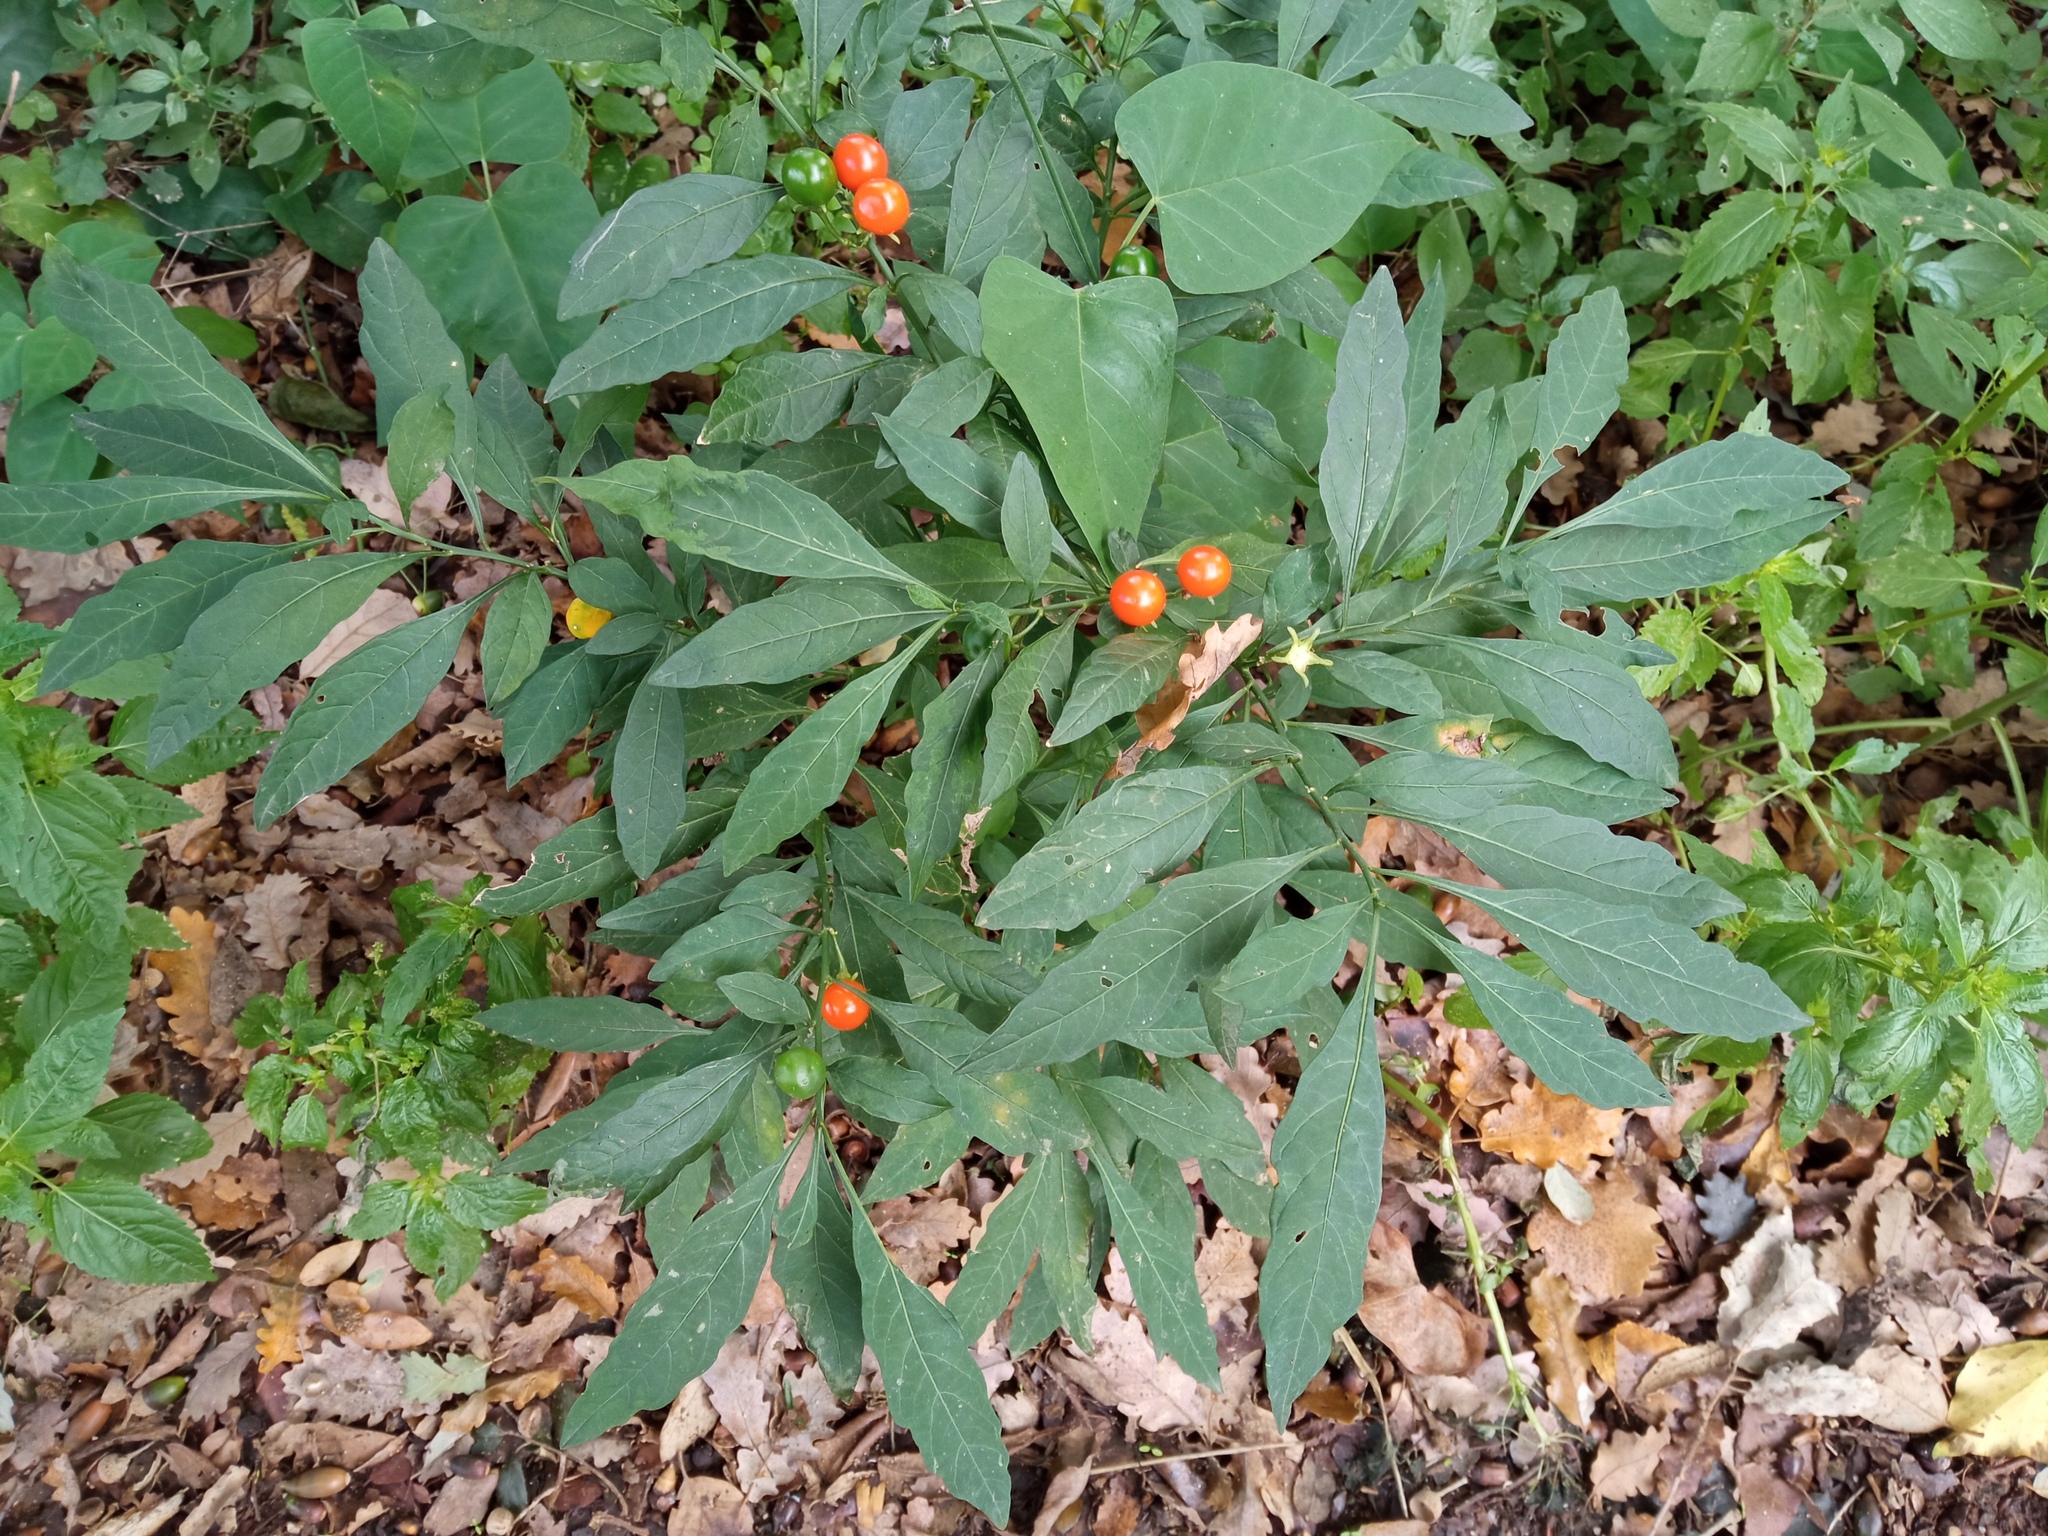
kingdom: Plantae
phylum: Tracheophyta
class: Magnoliopsida
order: Solanales
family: Solanaceae
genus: Solanum
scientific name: Solanum pseudocapsicum
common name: Jerusalem cherry
